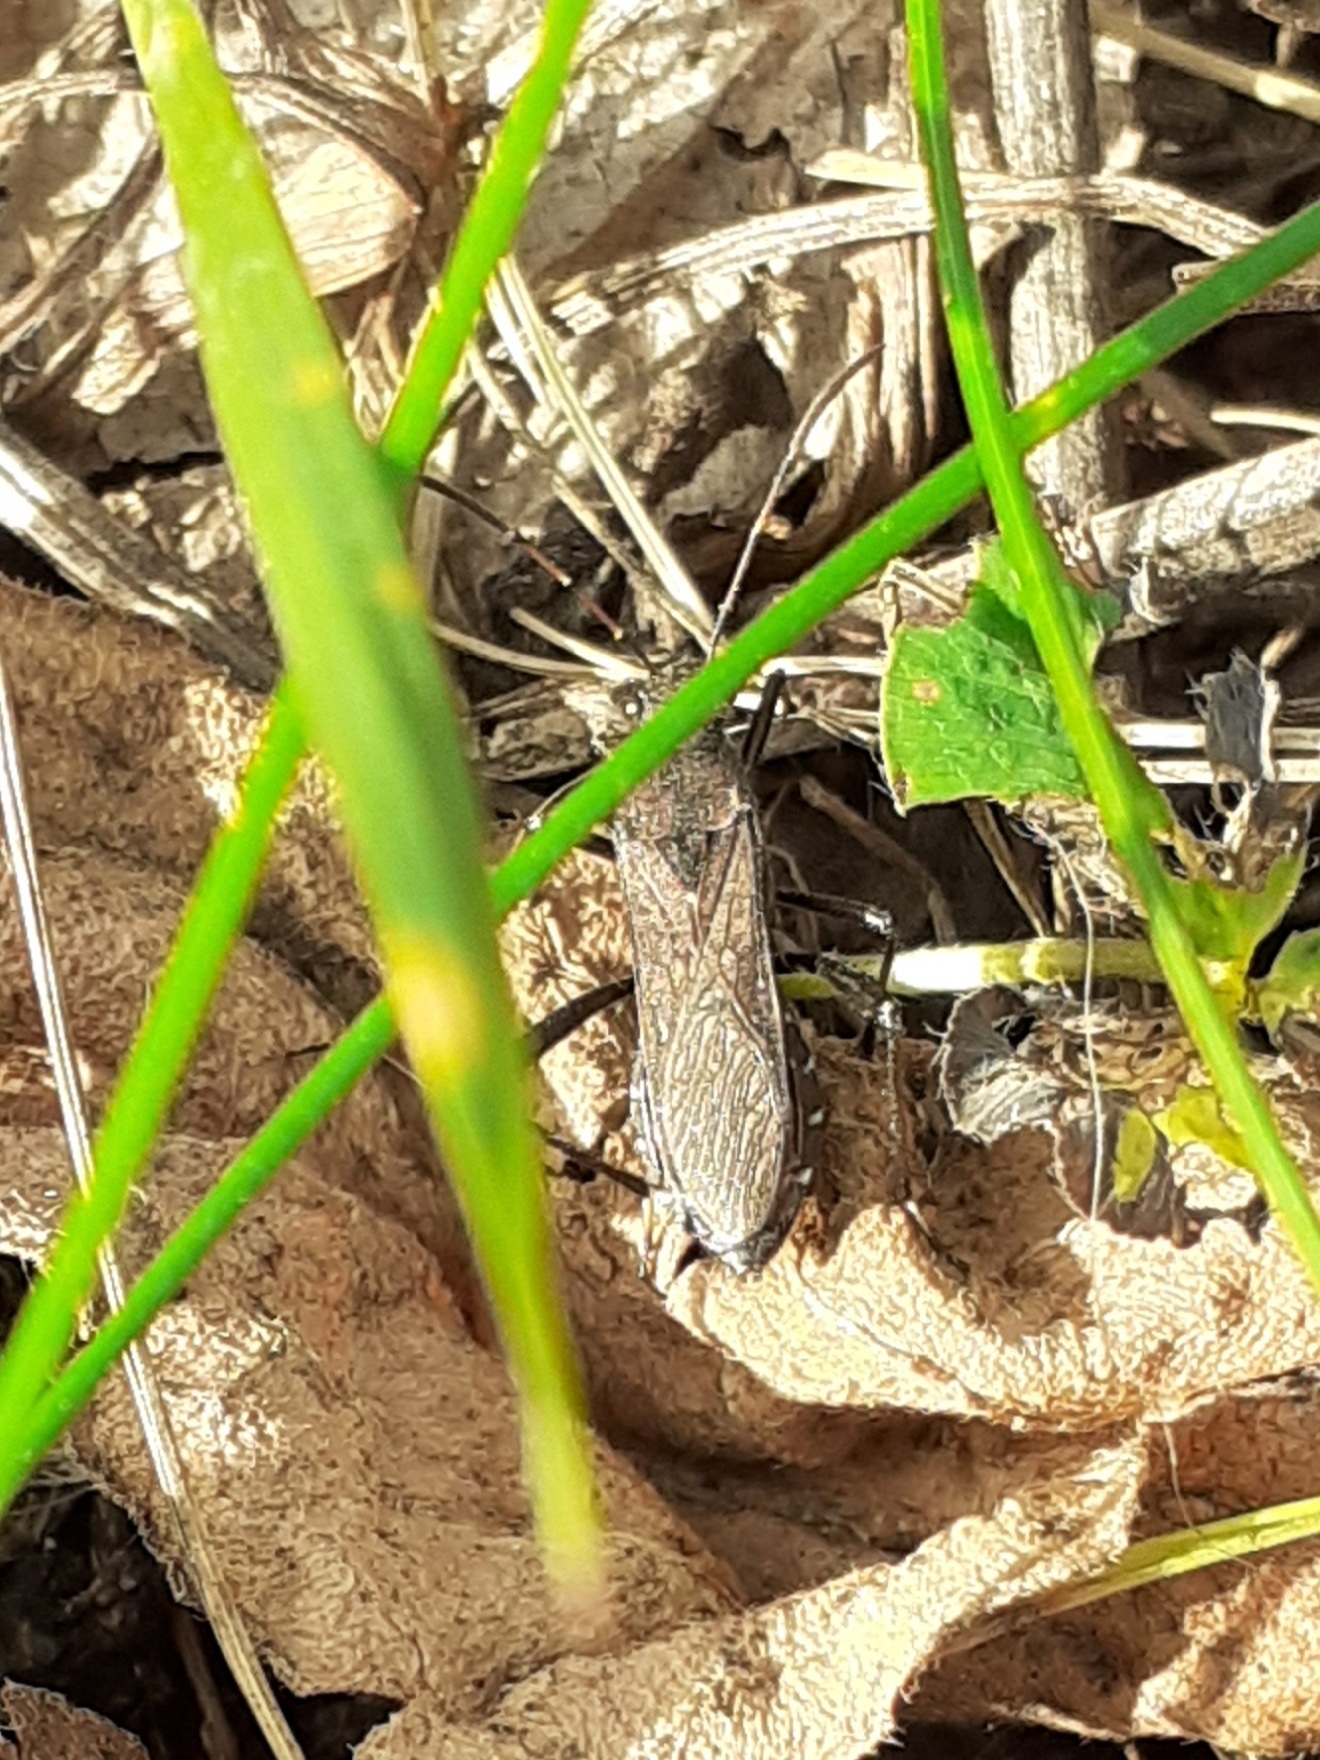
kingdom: Animalia
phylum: Arthropoda
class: Insecta
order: Hemiptera
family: Alydidae
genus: Alydus
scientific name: Alydus calcaratus
